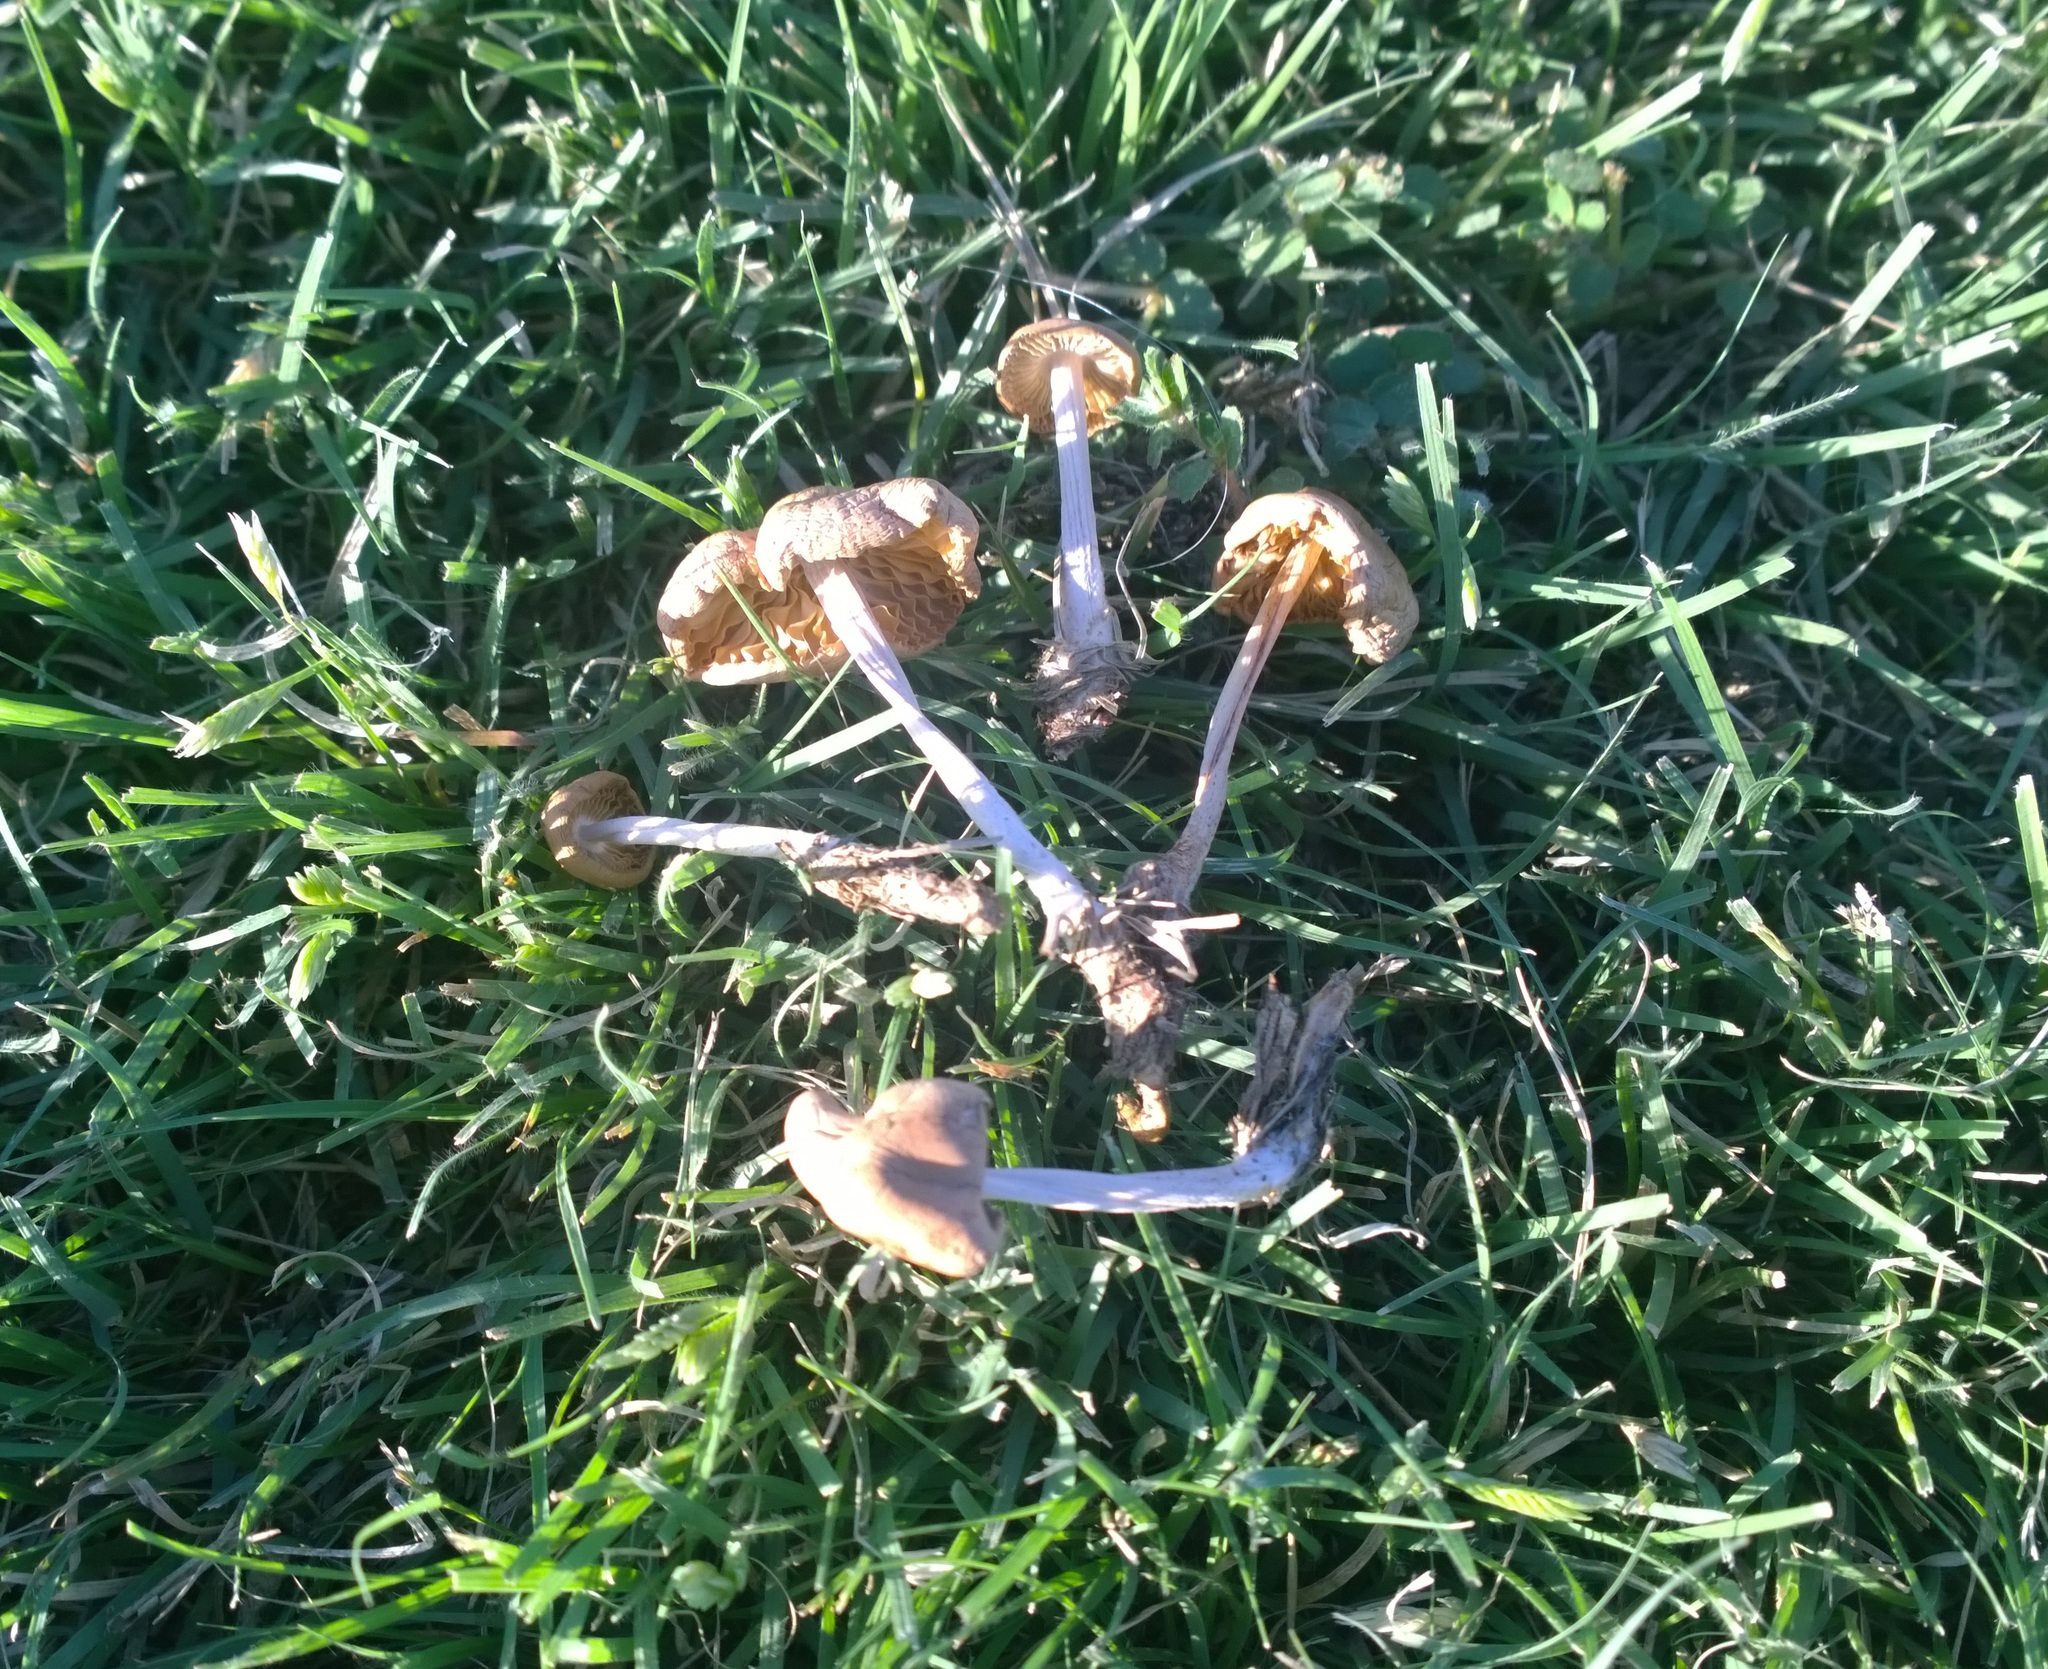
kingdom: Fungi
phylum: Basidiomycota
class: Agaricomycetes
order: Agaricales
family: Marasmiaceae
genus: Marasmius
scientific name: Marasmius oreades
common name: Fairy ring champignon
